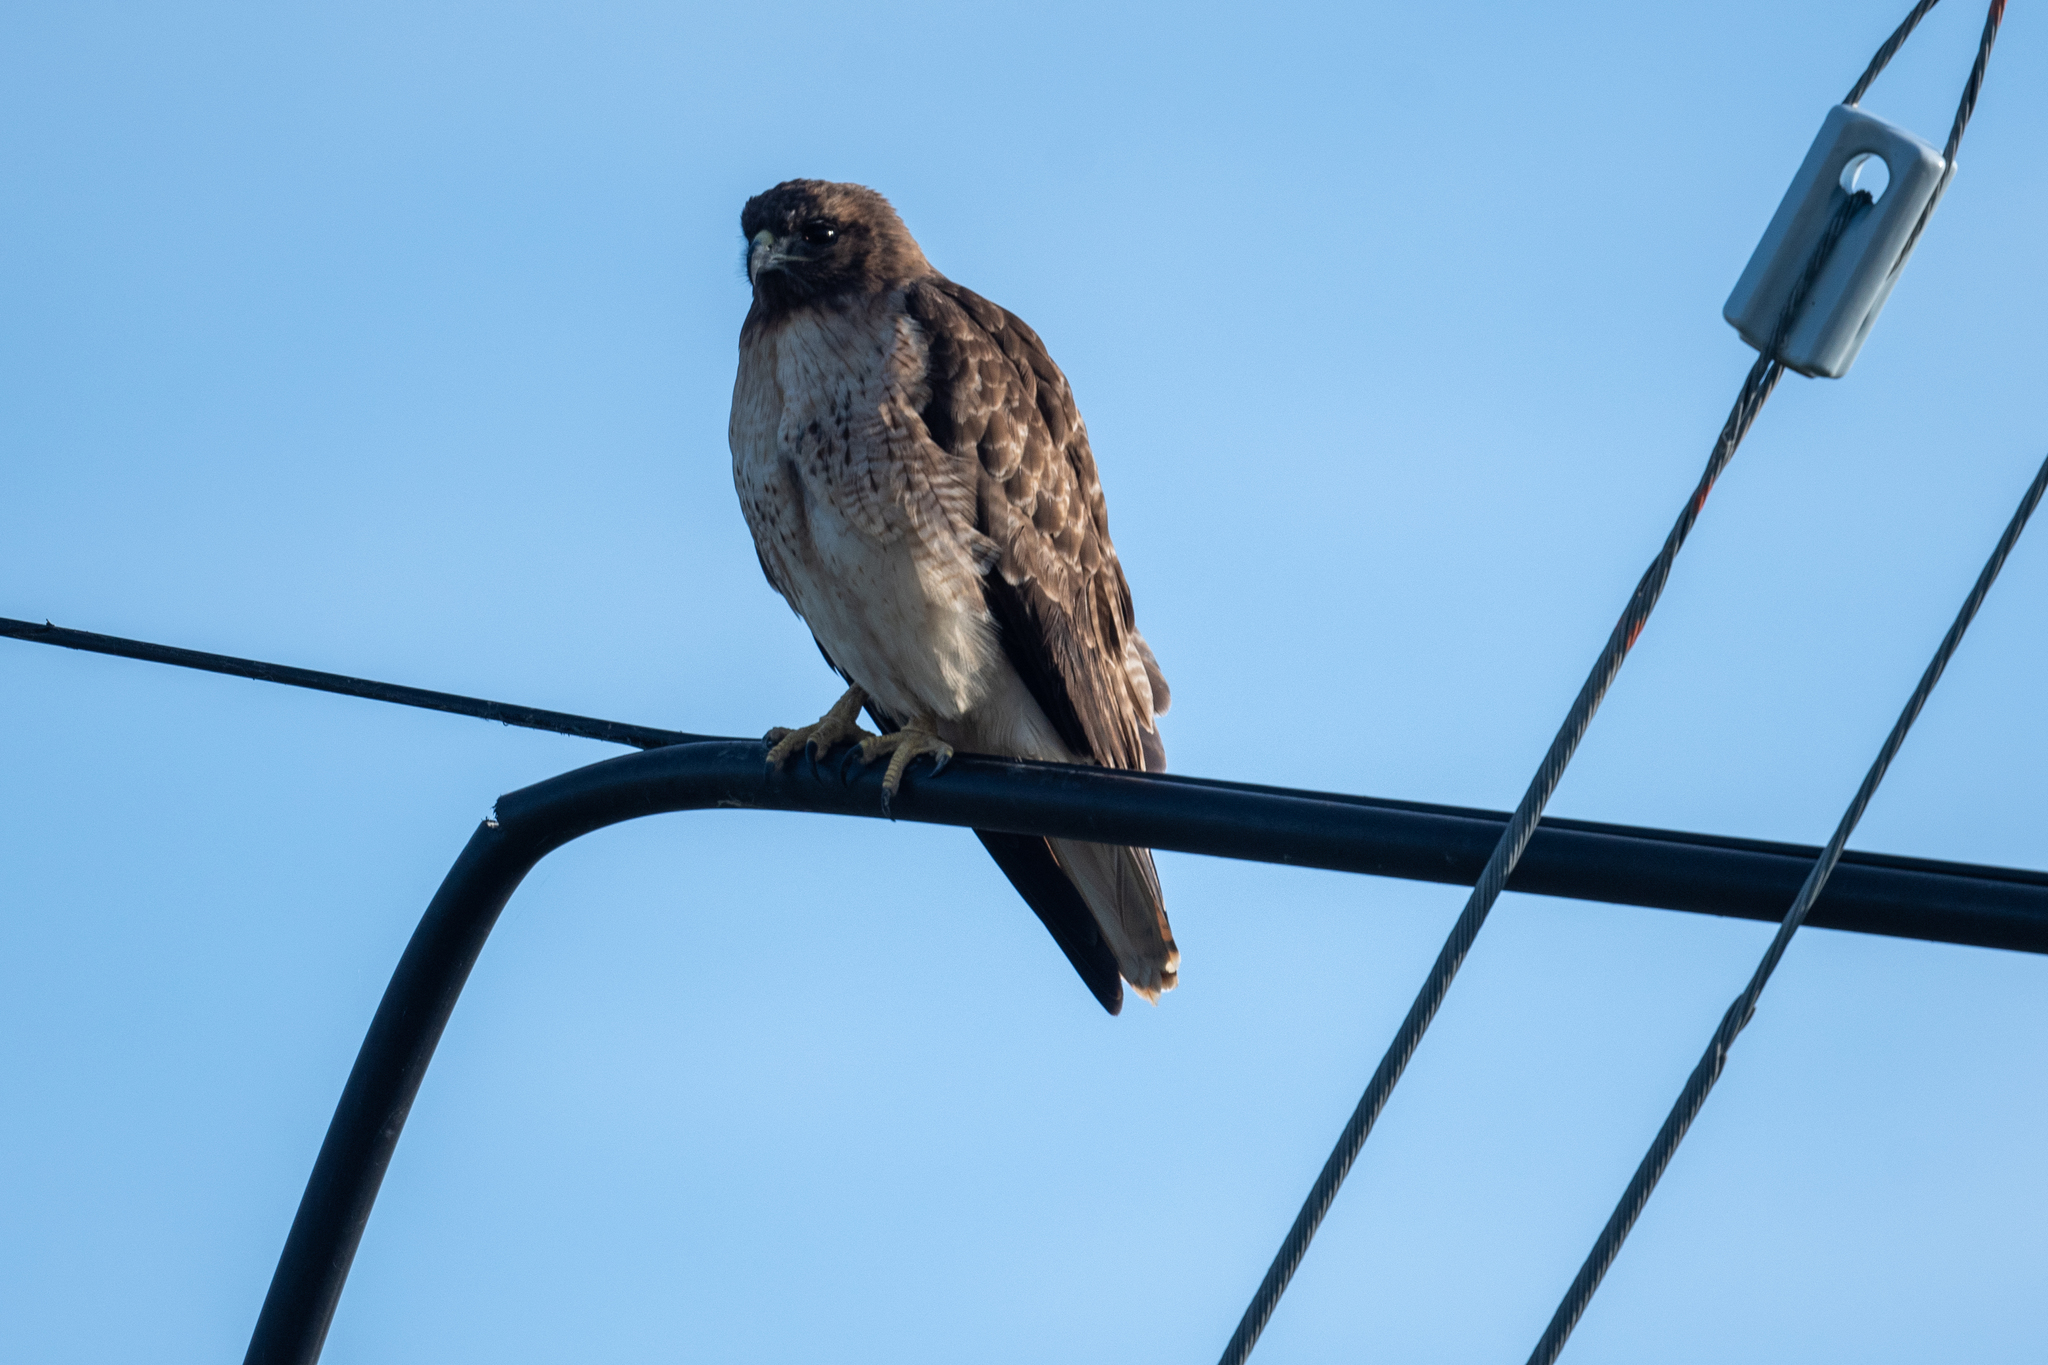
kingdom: Animalia
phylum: Chordata
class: Aves
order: Accipitriformes
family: Accipitridae
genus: Buteo
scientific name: Buteo jamaicensis
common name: Red-tailed hawk
